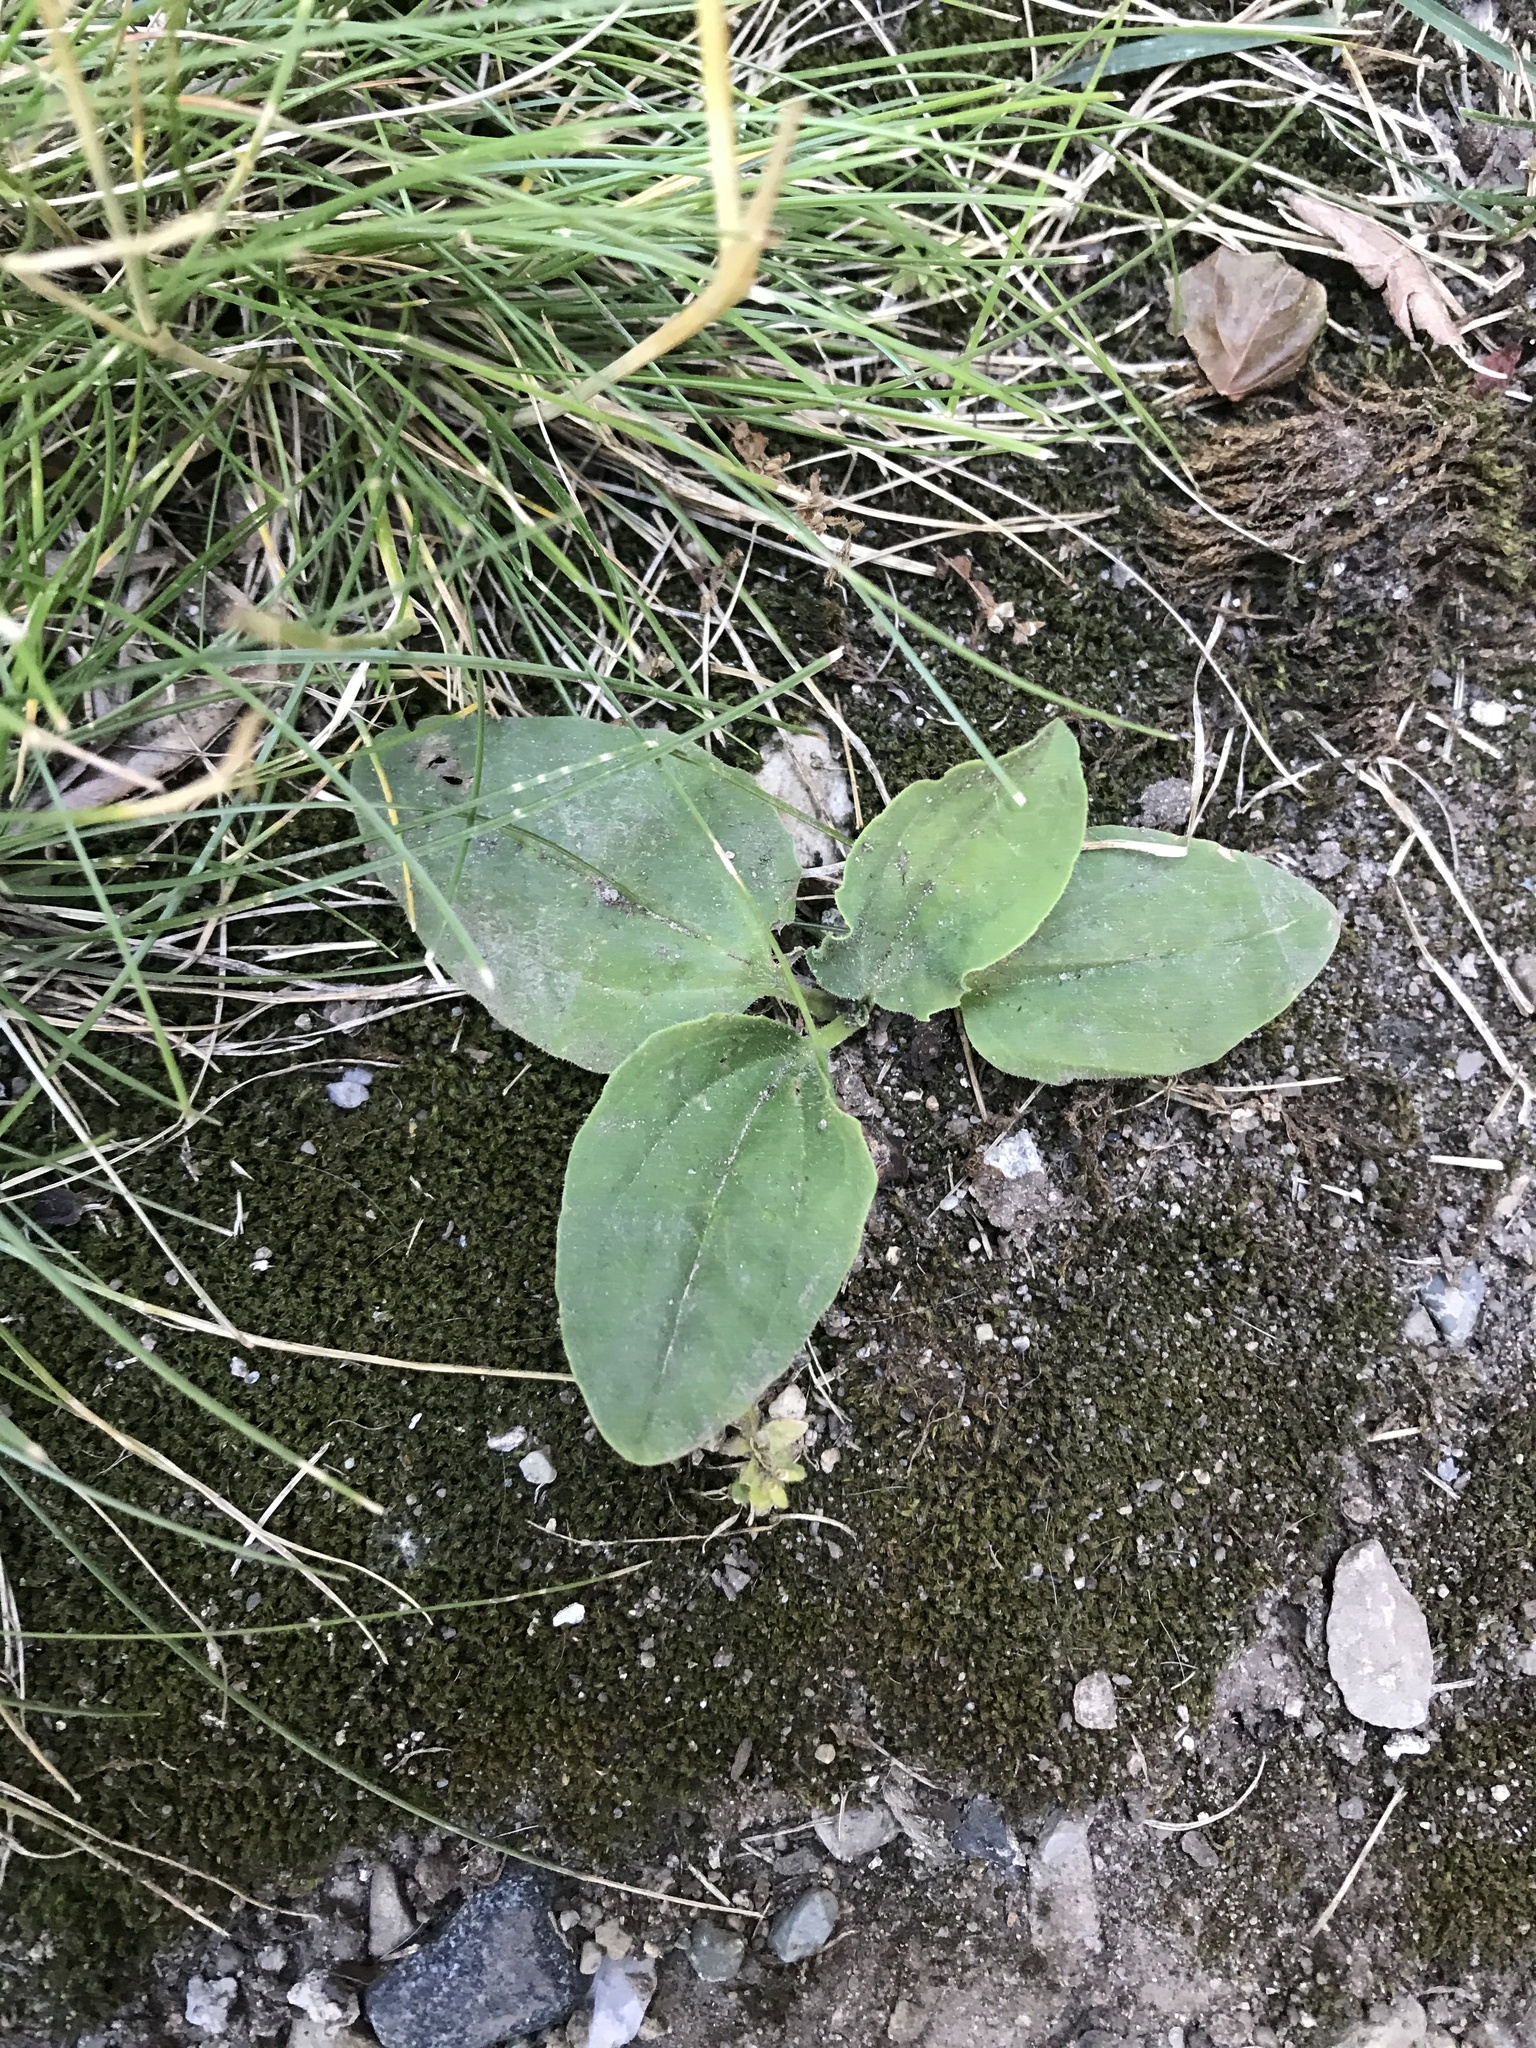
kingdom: Plantae
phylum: Tracheophyta
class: Magnoliopsida
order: Lamiales
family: Plantaginaceae
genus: Plantago
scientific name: Plantago
